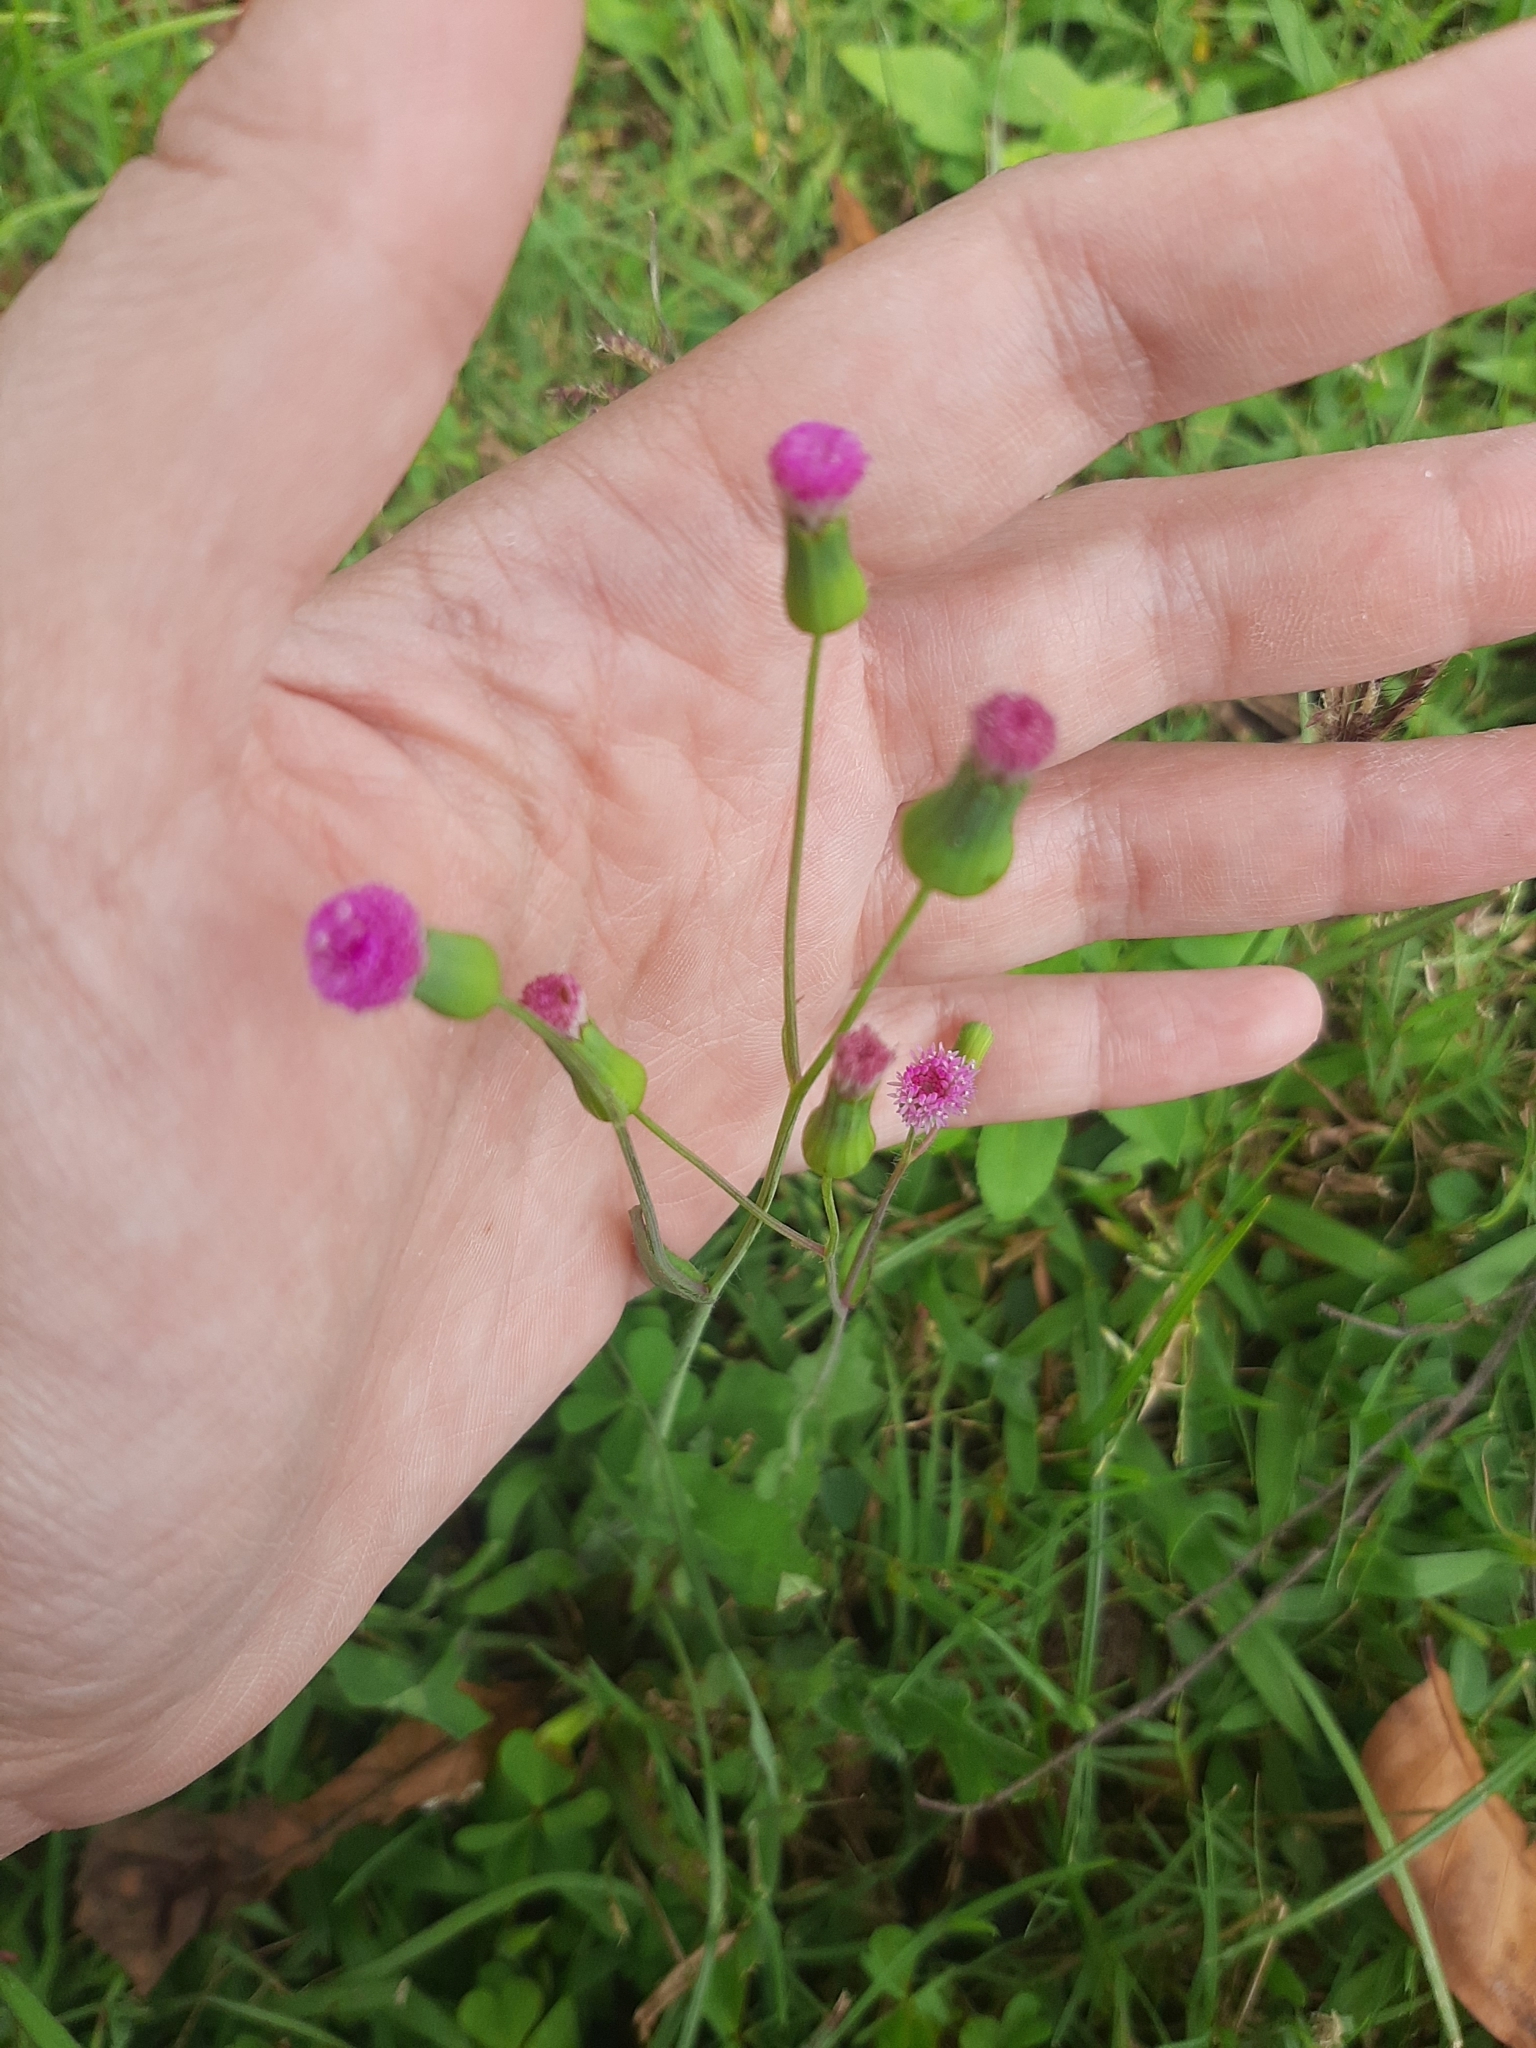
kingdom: Plantae
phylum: Tracheophyta
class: Magnoliopsida
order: Asterales
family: Asteraceae
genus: Emilia
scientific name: Emilia javanica
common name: Tassel-flower
